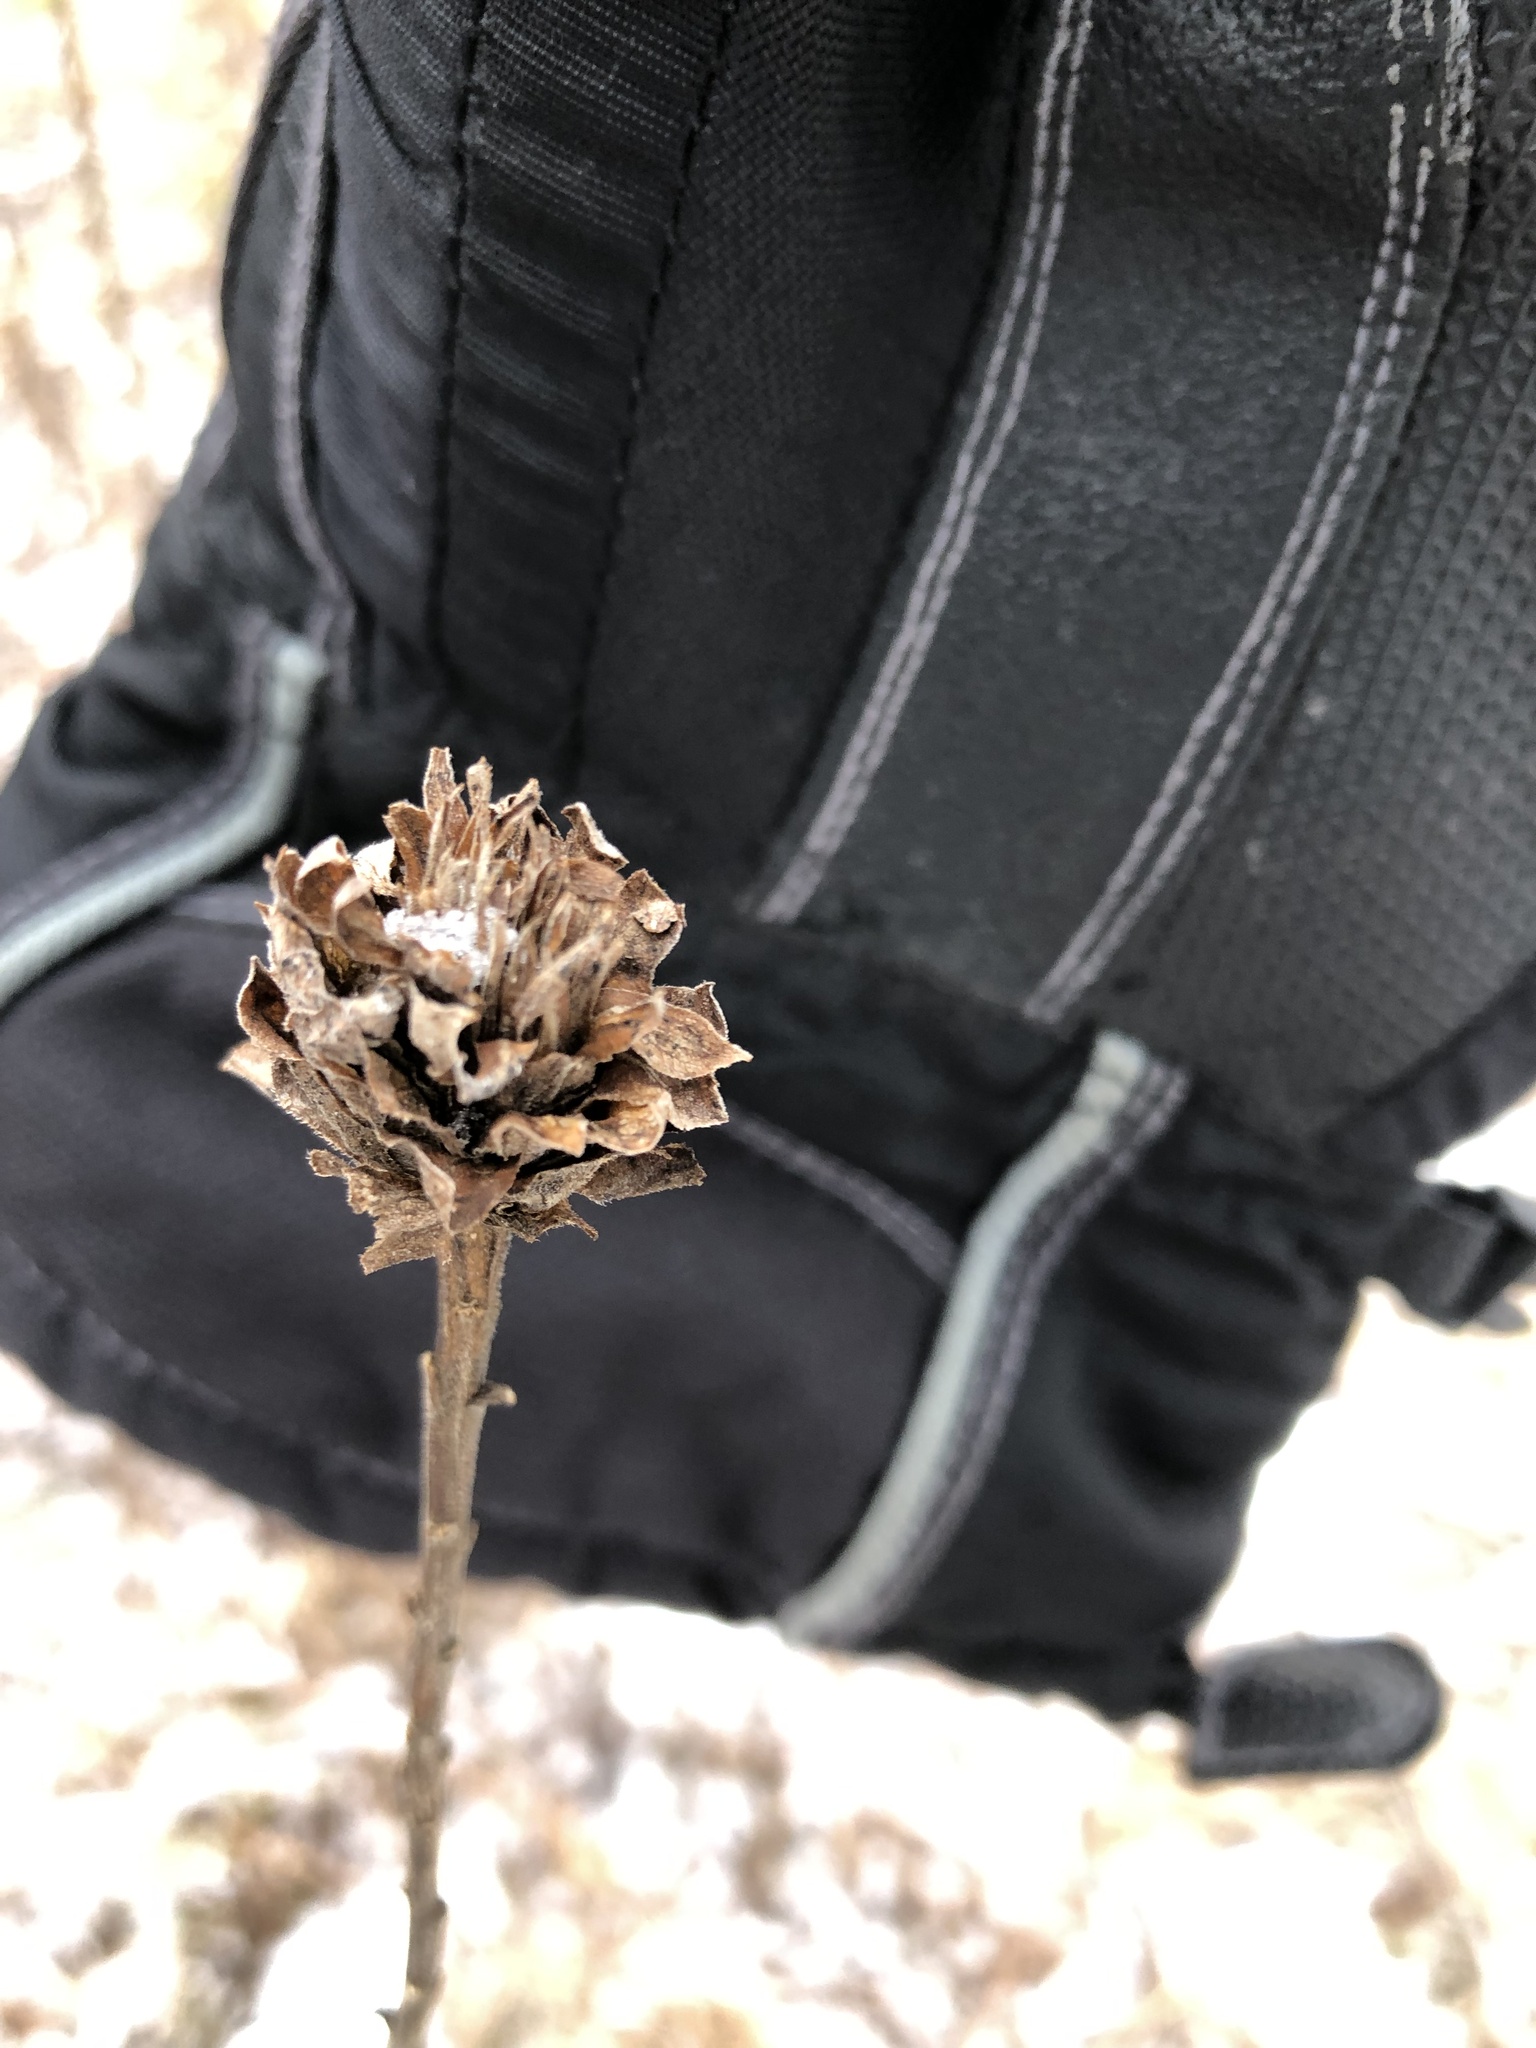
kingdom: Animalia
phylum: Arthropoda
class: Insecta
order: Diptera
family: Cecidomyiidae
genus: Rhopalomyia
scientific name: Rhopalomyia solidaginis
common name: Goldenrod bunch gall midge
